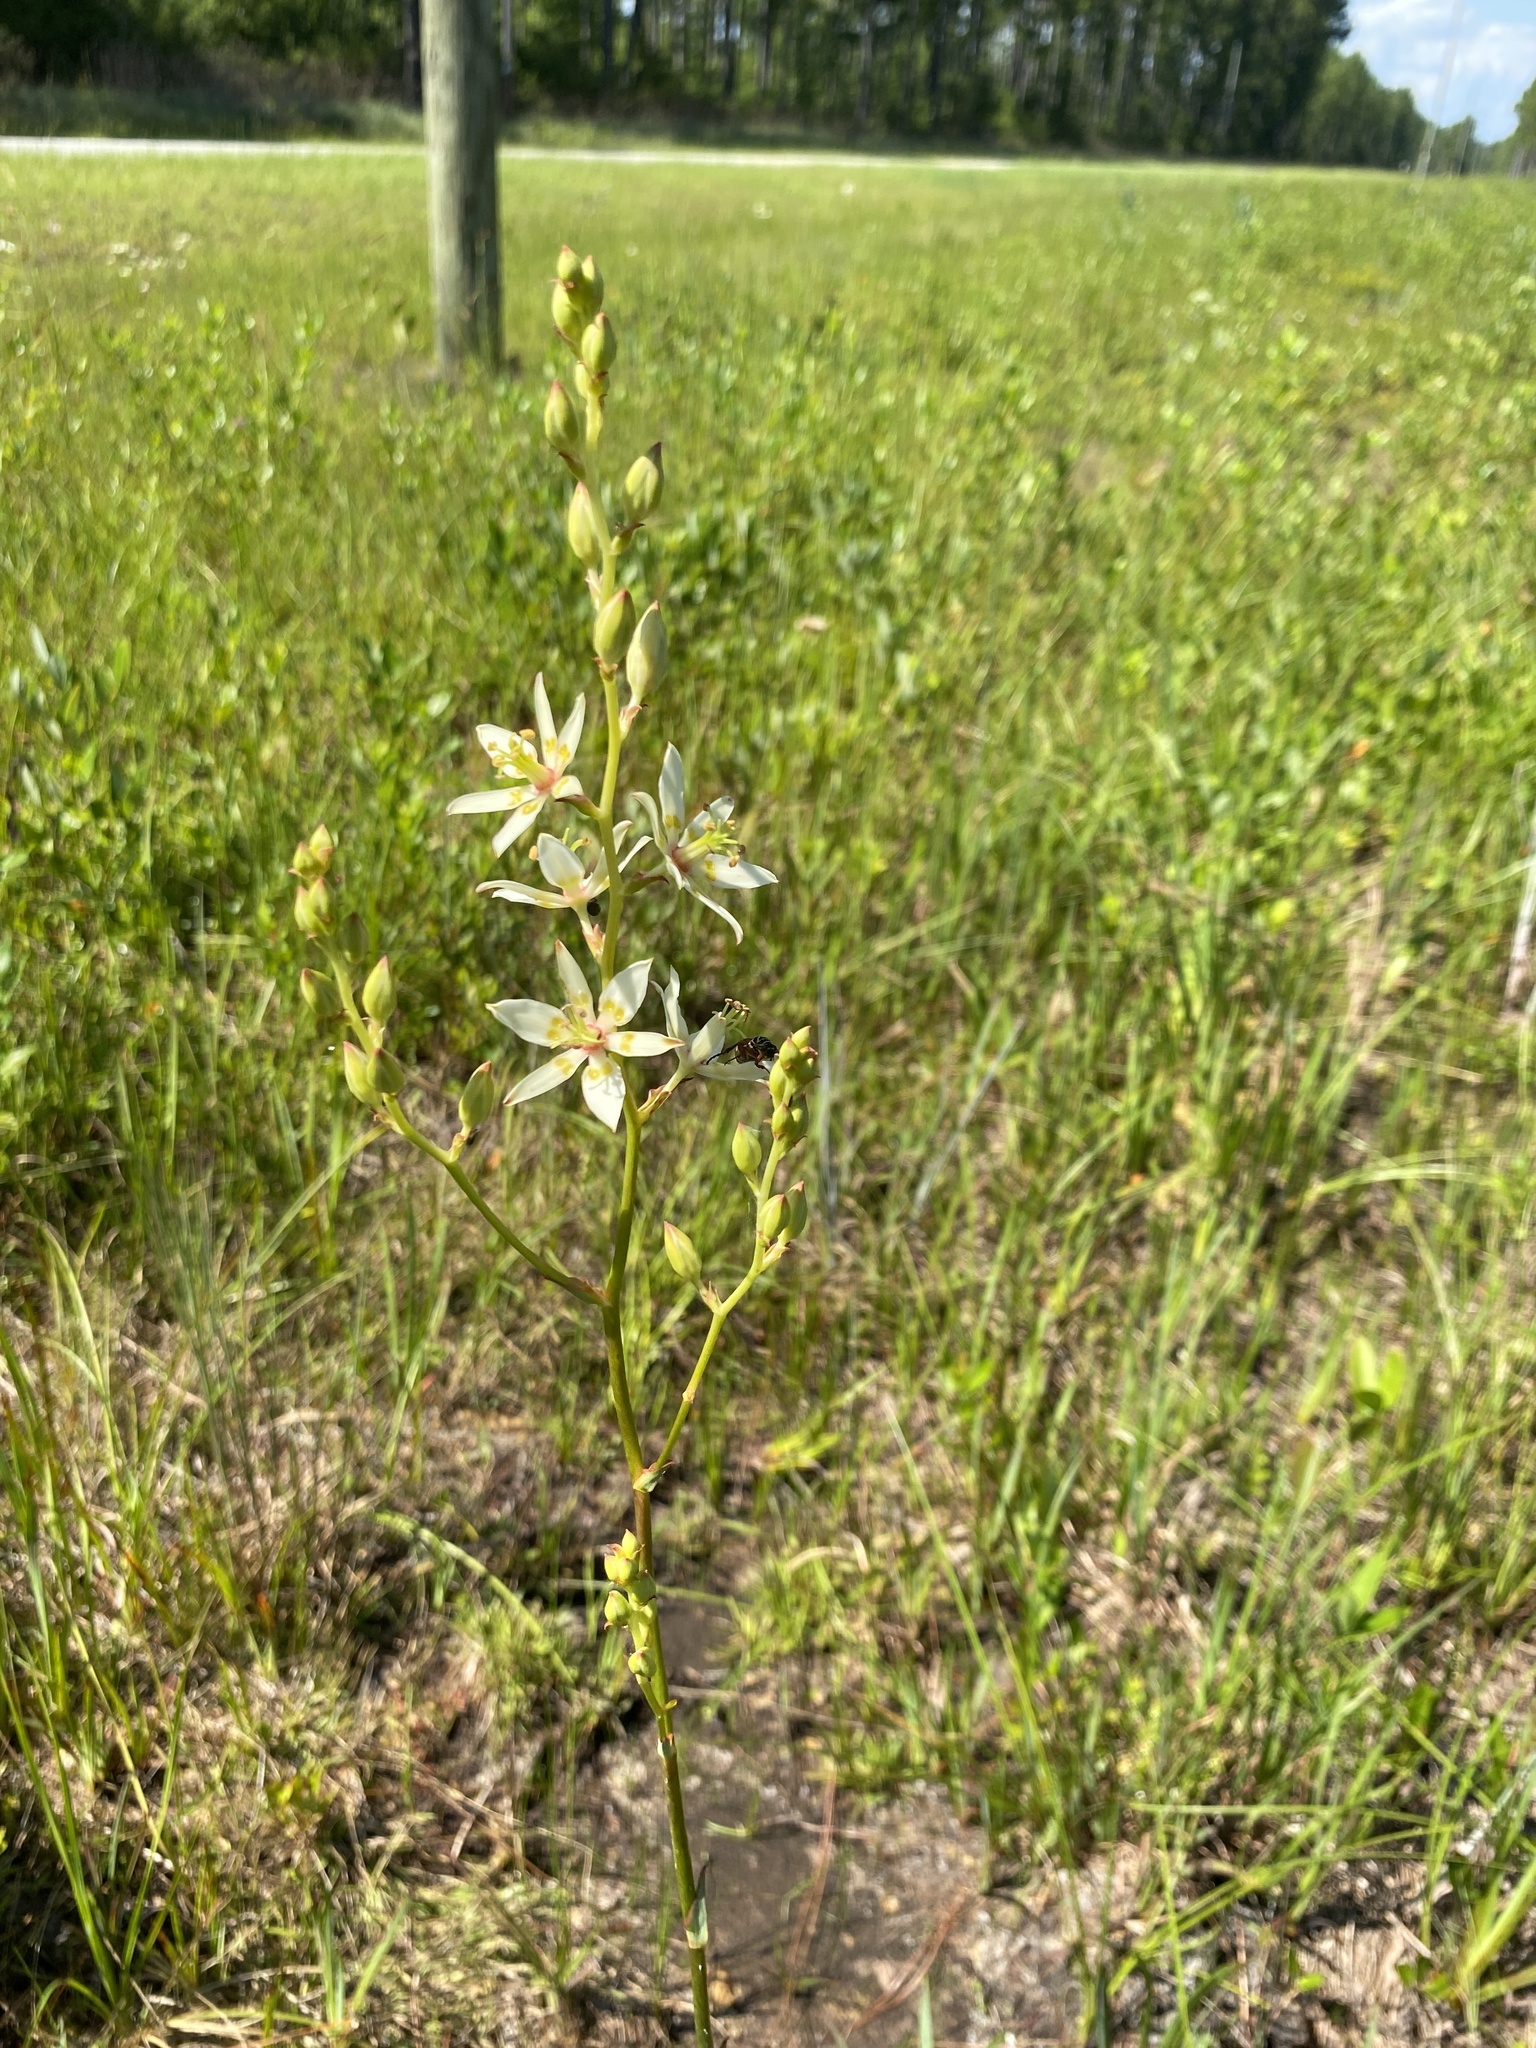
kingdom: Plantae
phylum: Tracheophyta
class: Liliopsida
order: Liliales
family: Melanthiaceae
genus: Zigadenus
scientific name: Zigadenus glaberrimus
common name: Sandbog death camas
